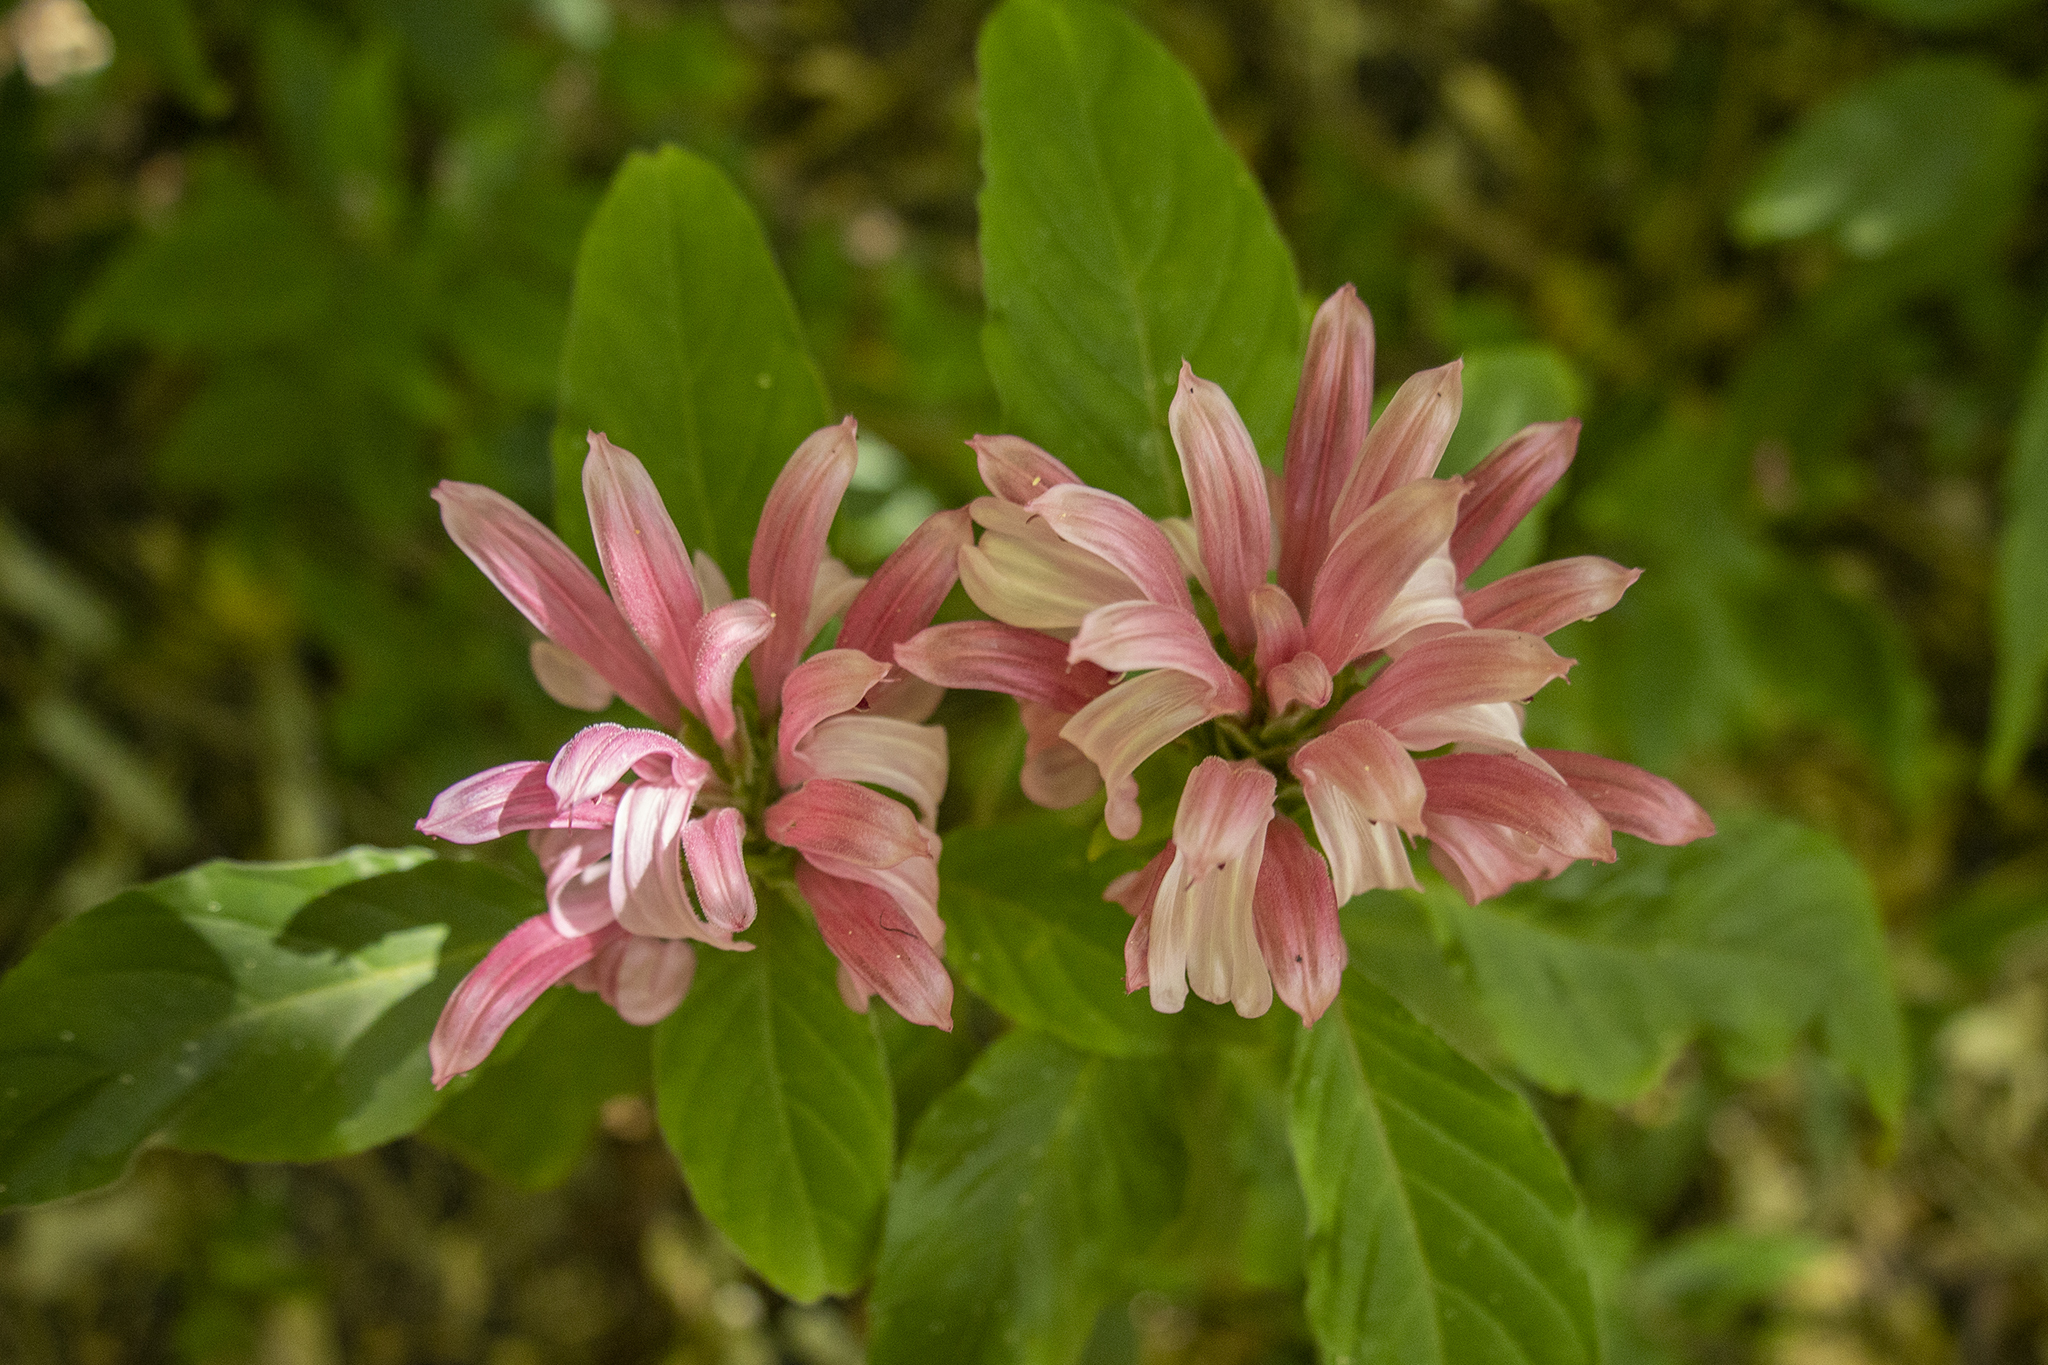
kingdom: Plantae
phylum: Tracheophyta
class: Magnoliopsida
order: Lamiales
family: Acanthaceae
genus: Justicia
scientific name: Justicia carnea
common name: Brazilian-plume
